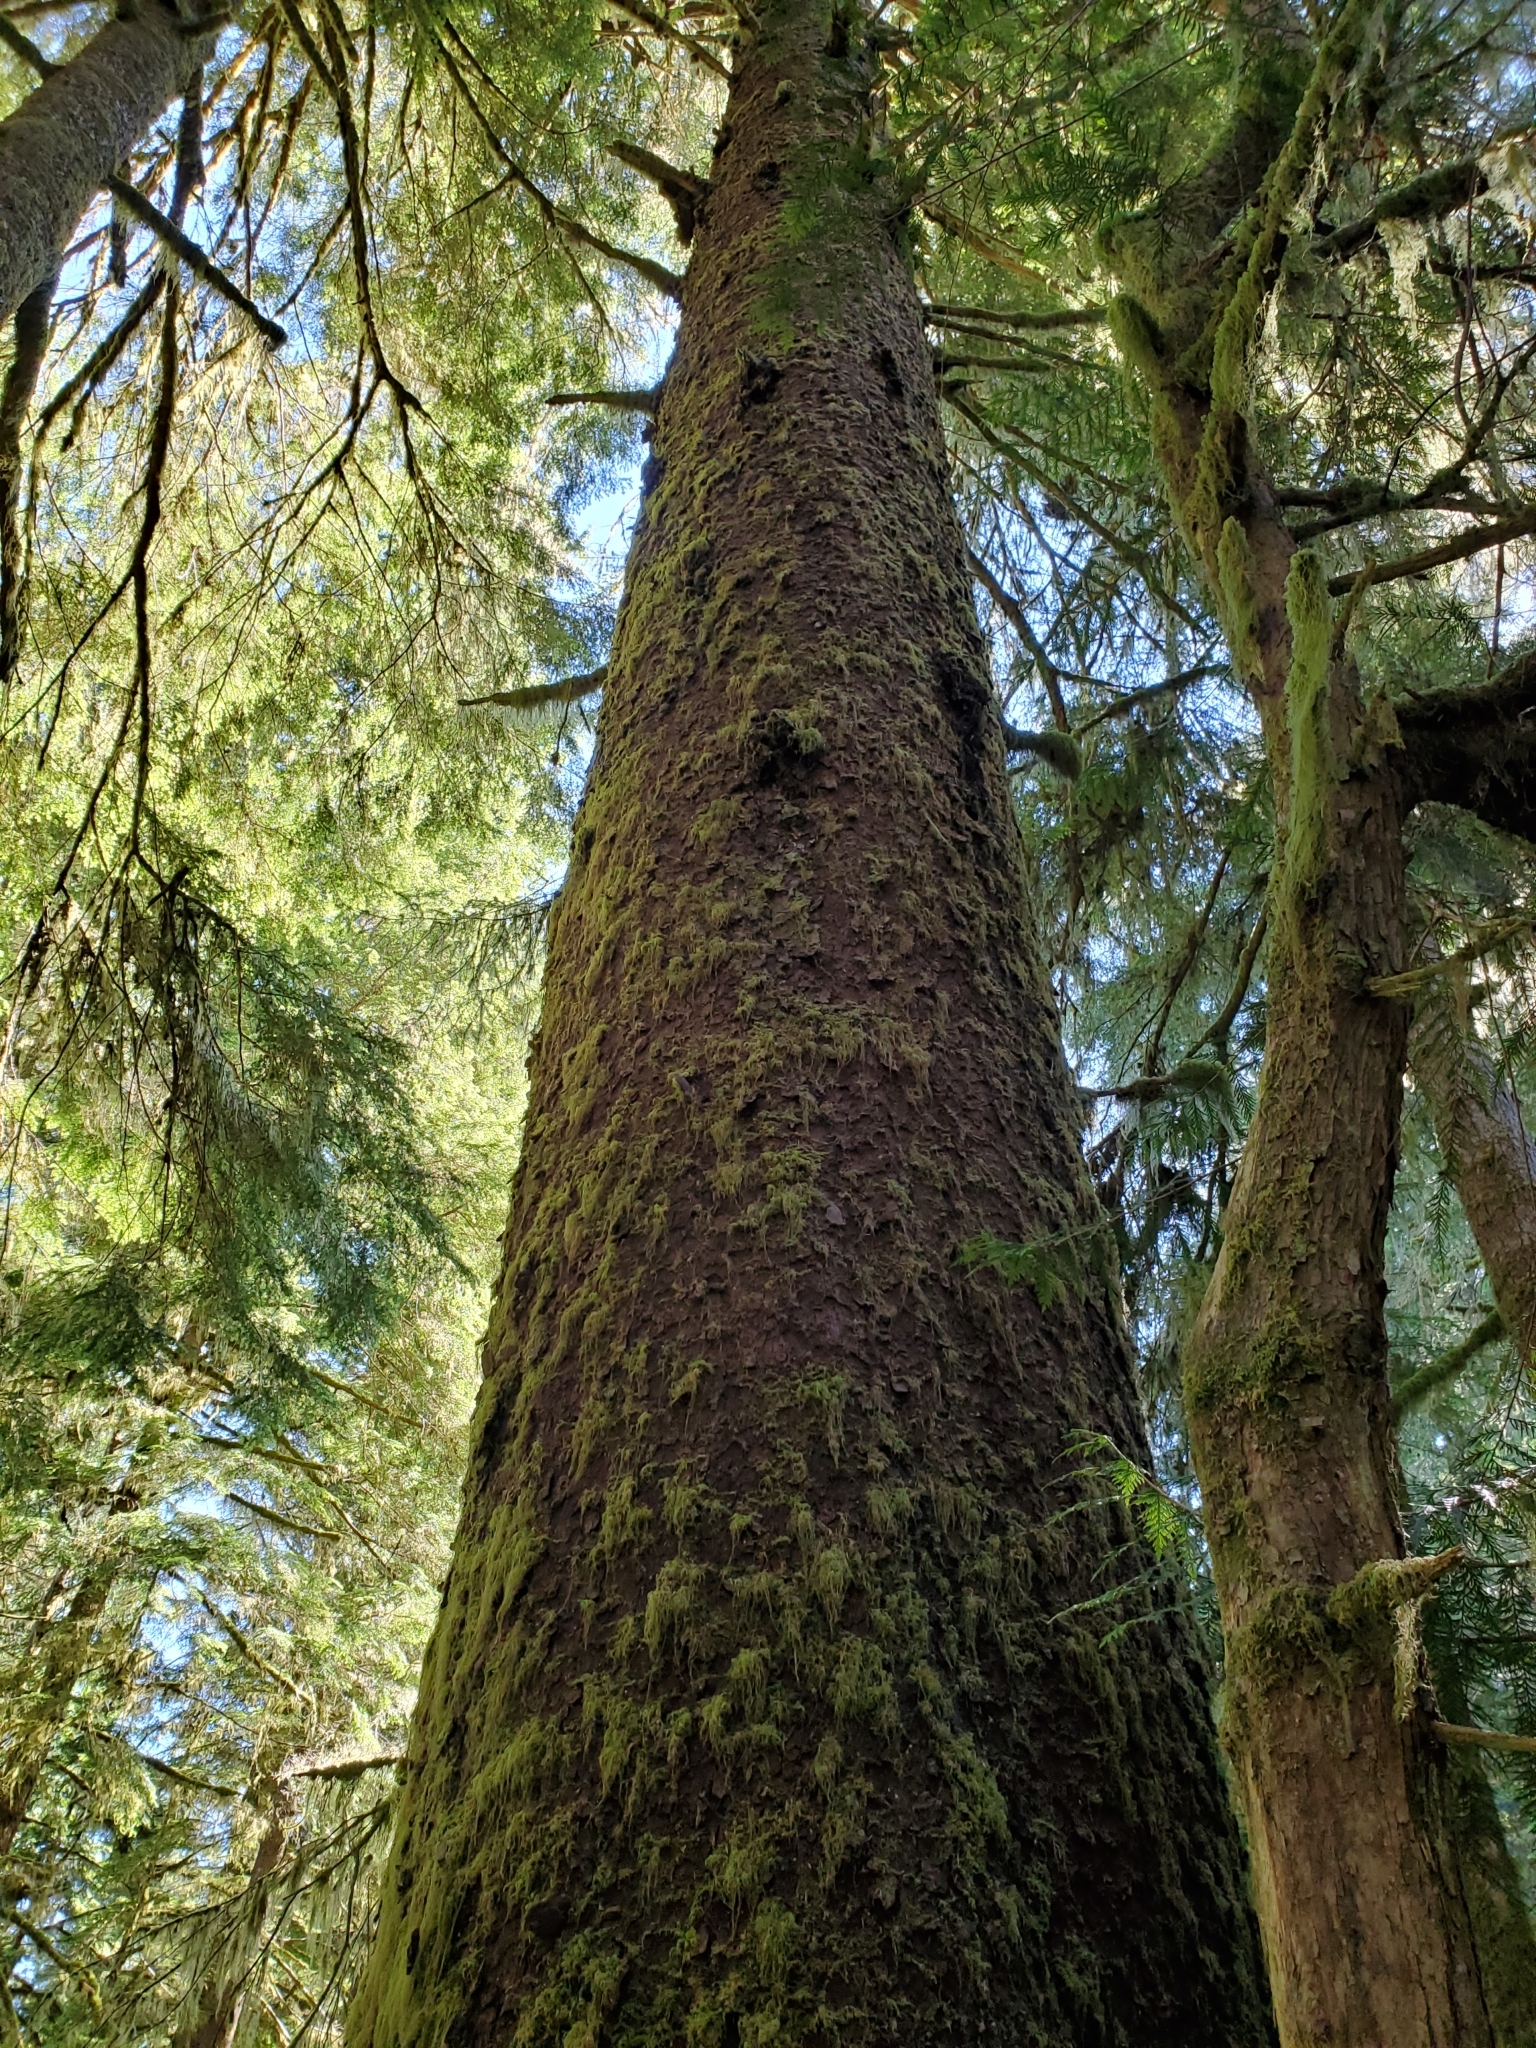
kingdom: Plantae
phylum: Tracheophyta
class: Pinopsida
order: Pinales
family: Pinaceae
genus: Picea
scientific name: Picea sitchensis
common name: Sitka spruce
